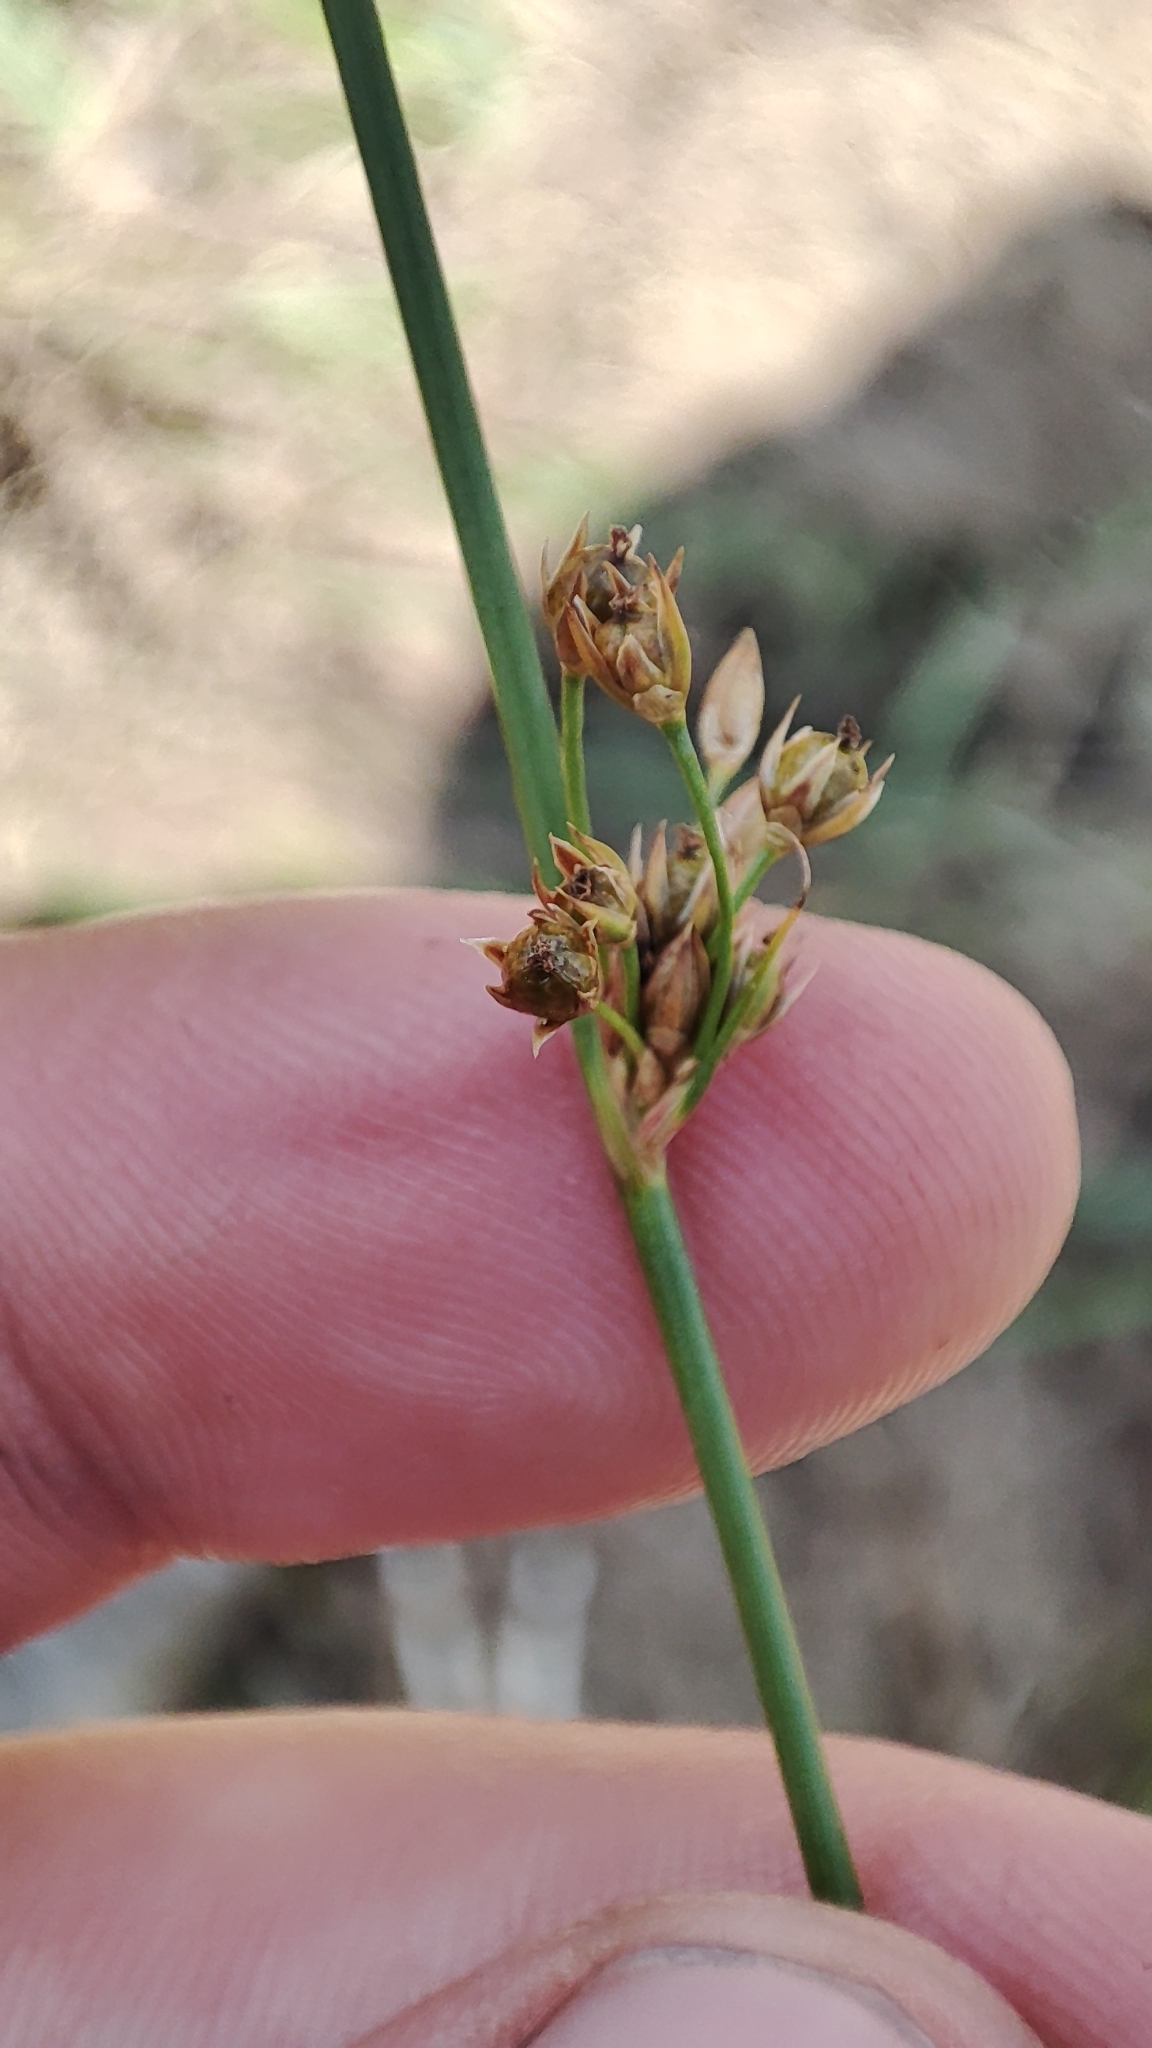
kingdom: Plantae
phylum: Tracheophyta
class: Liliopsida
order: Poales
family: Juncaceae
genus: Juncus
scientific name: Juncus filiformis
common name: Thread rush
